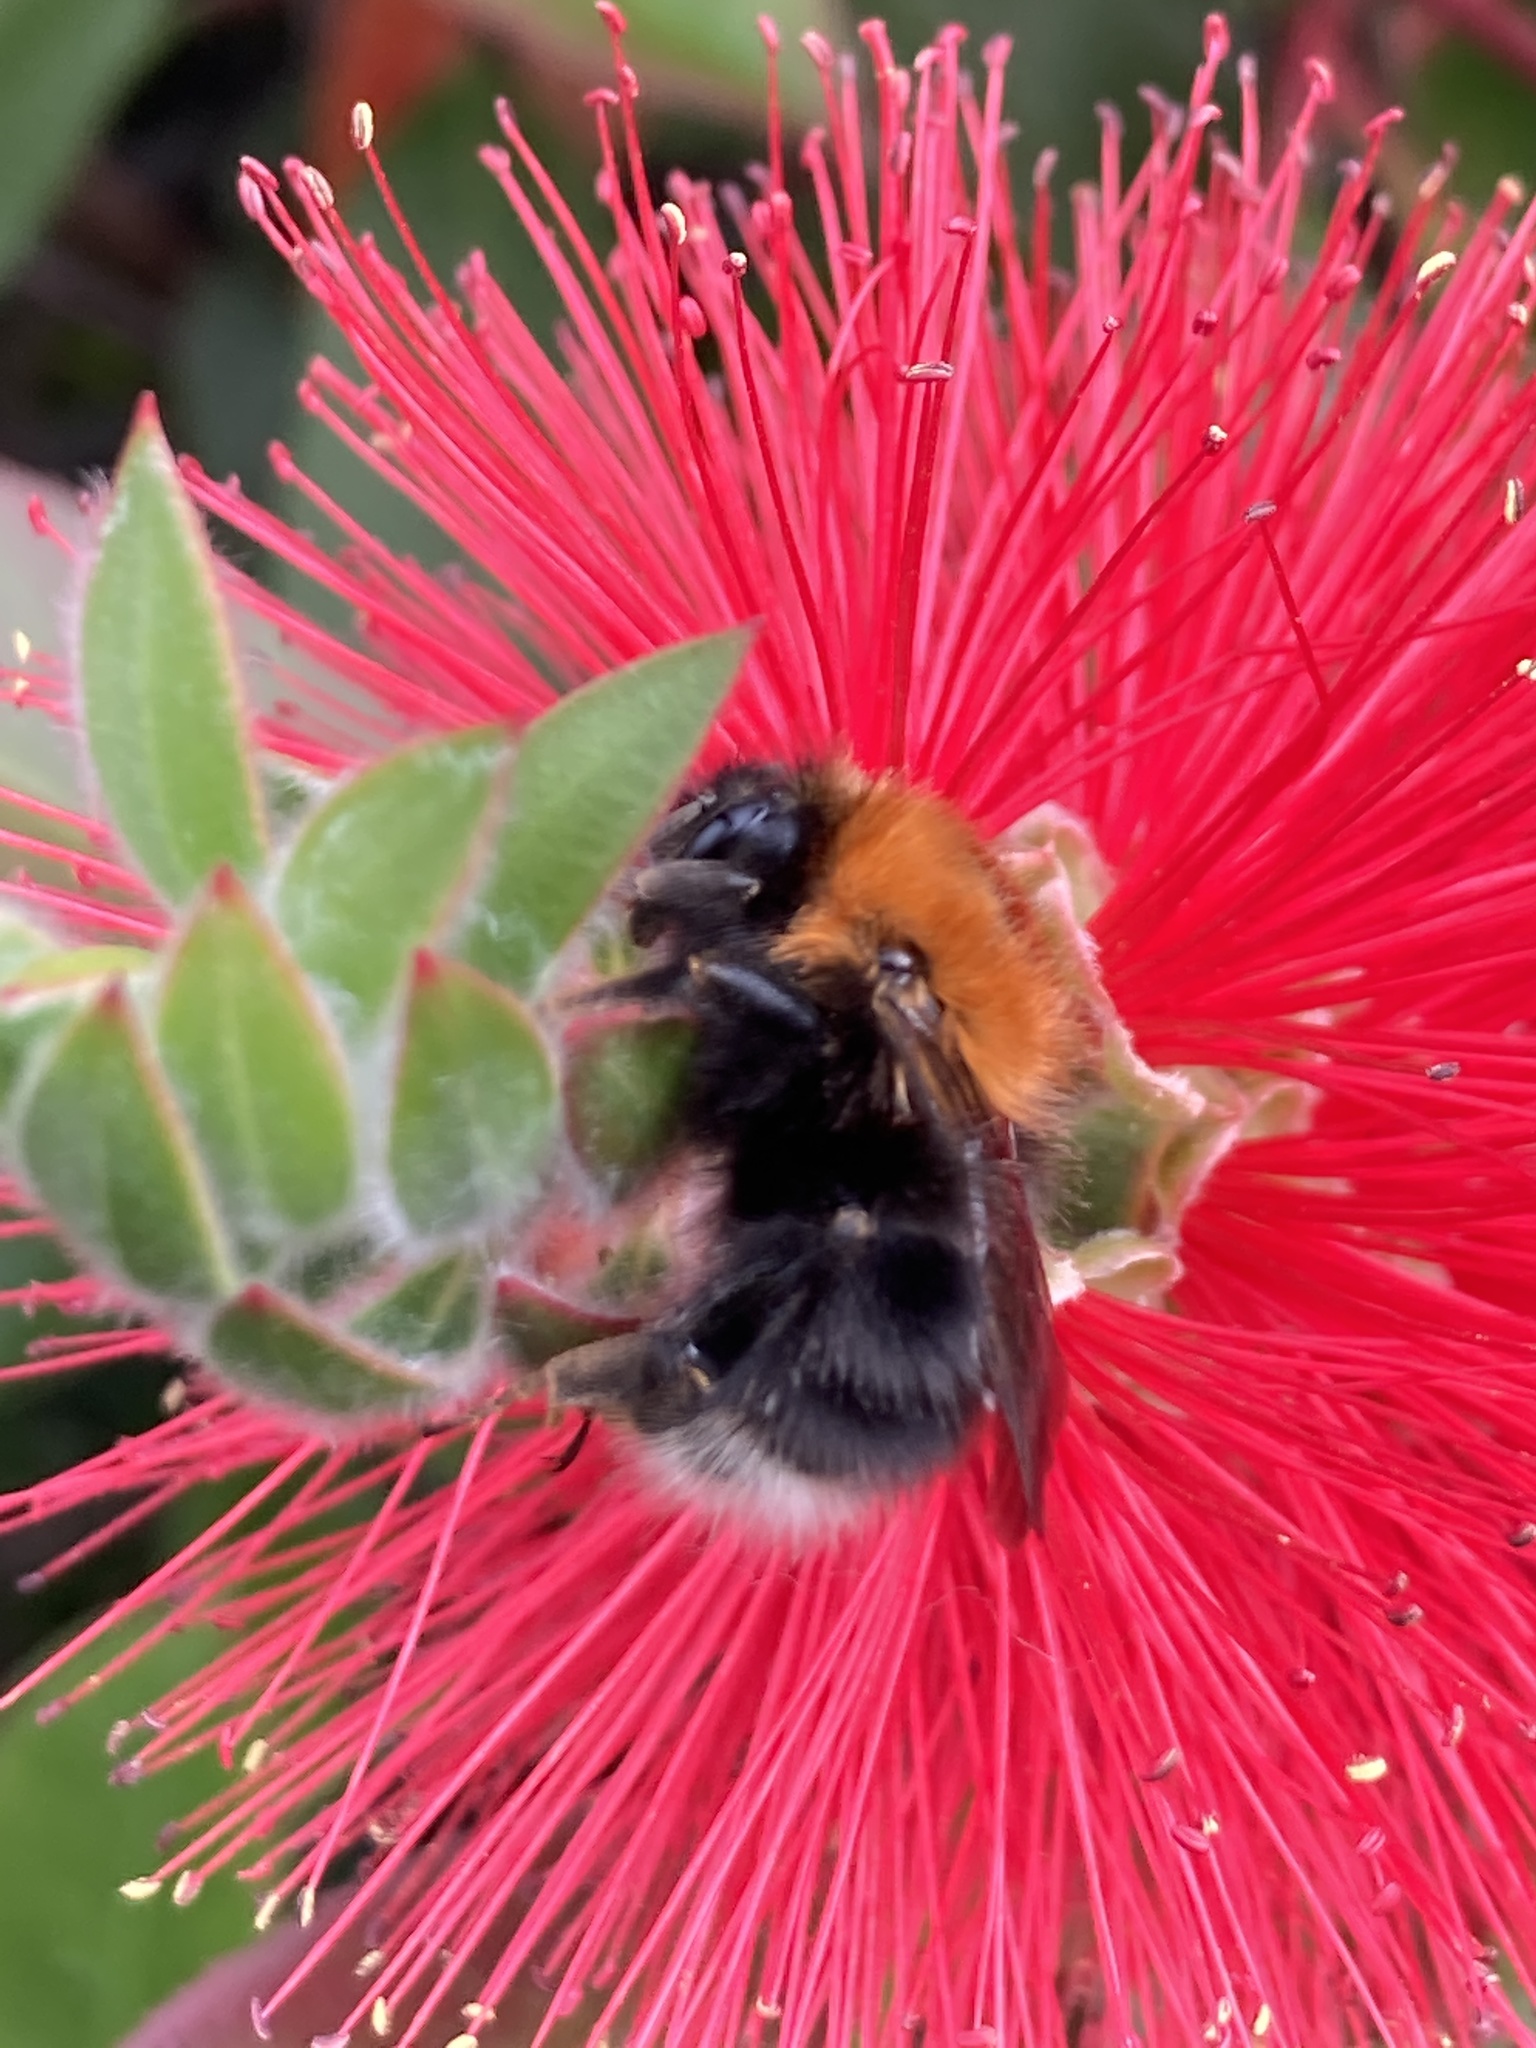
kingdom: Animalia
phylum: Arthropoda
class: Insecta
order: Hymenoptera
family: Apidae
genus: Bombus
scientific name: Bombus hypnorum
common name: New garden bumblebee
